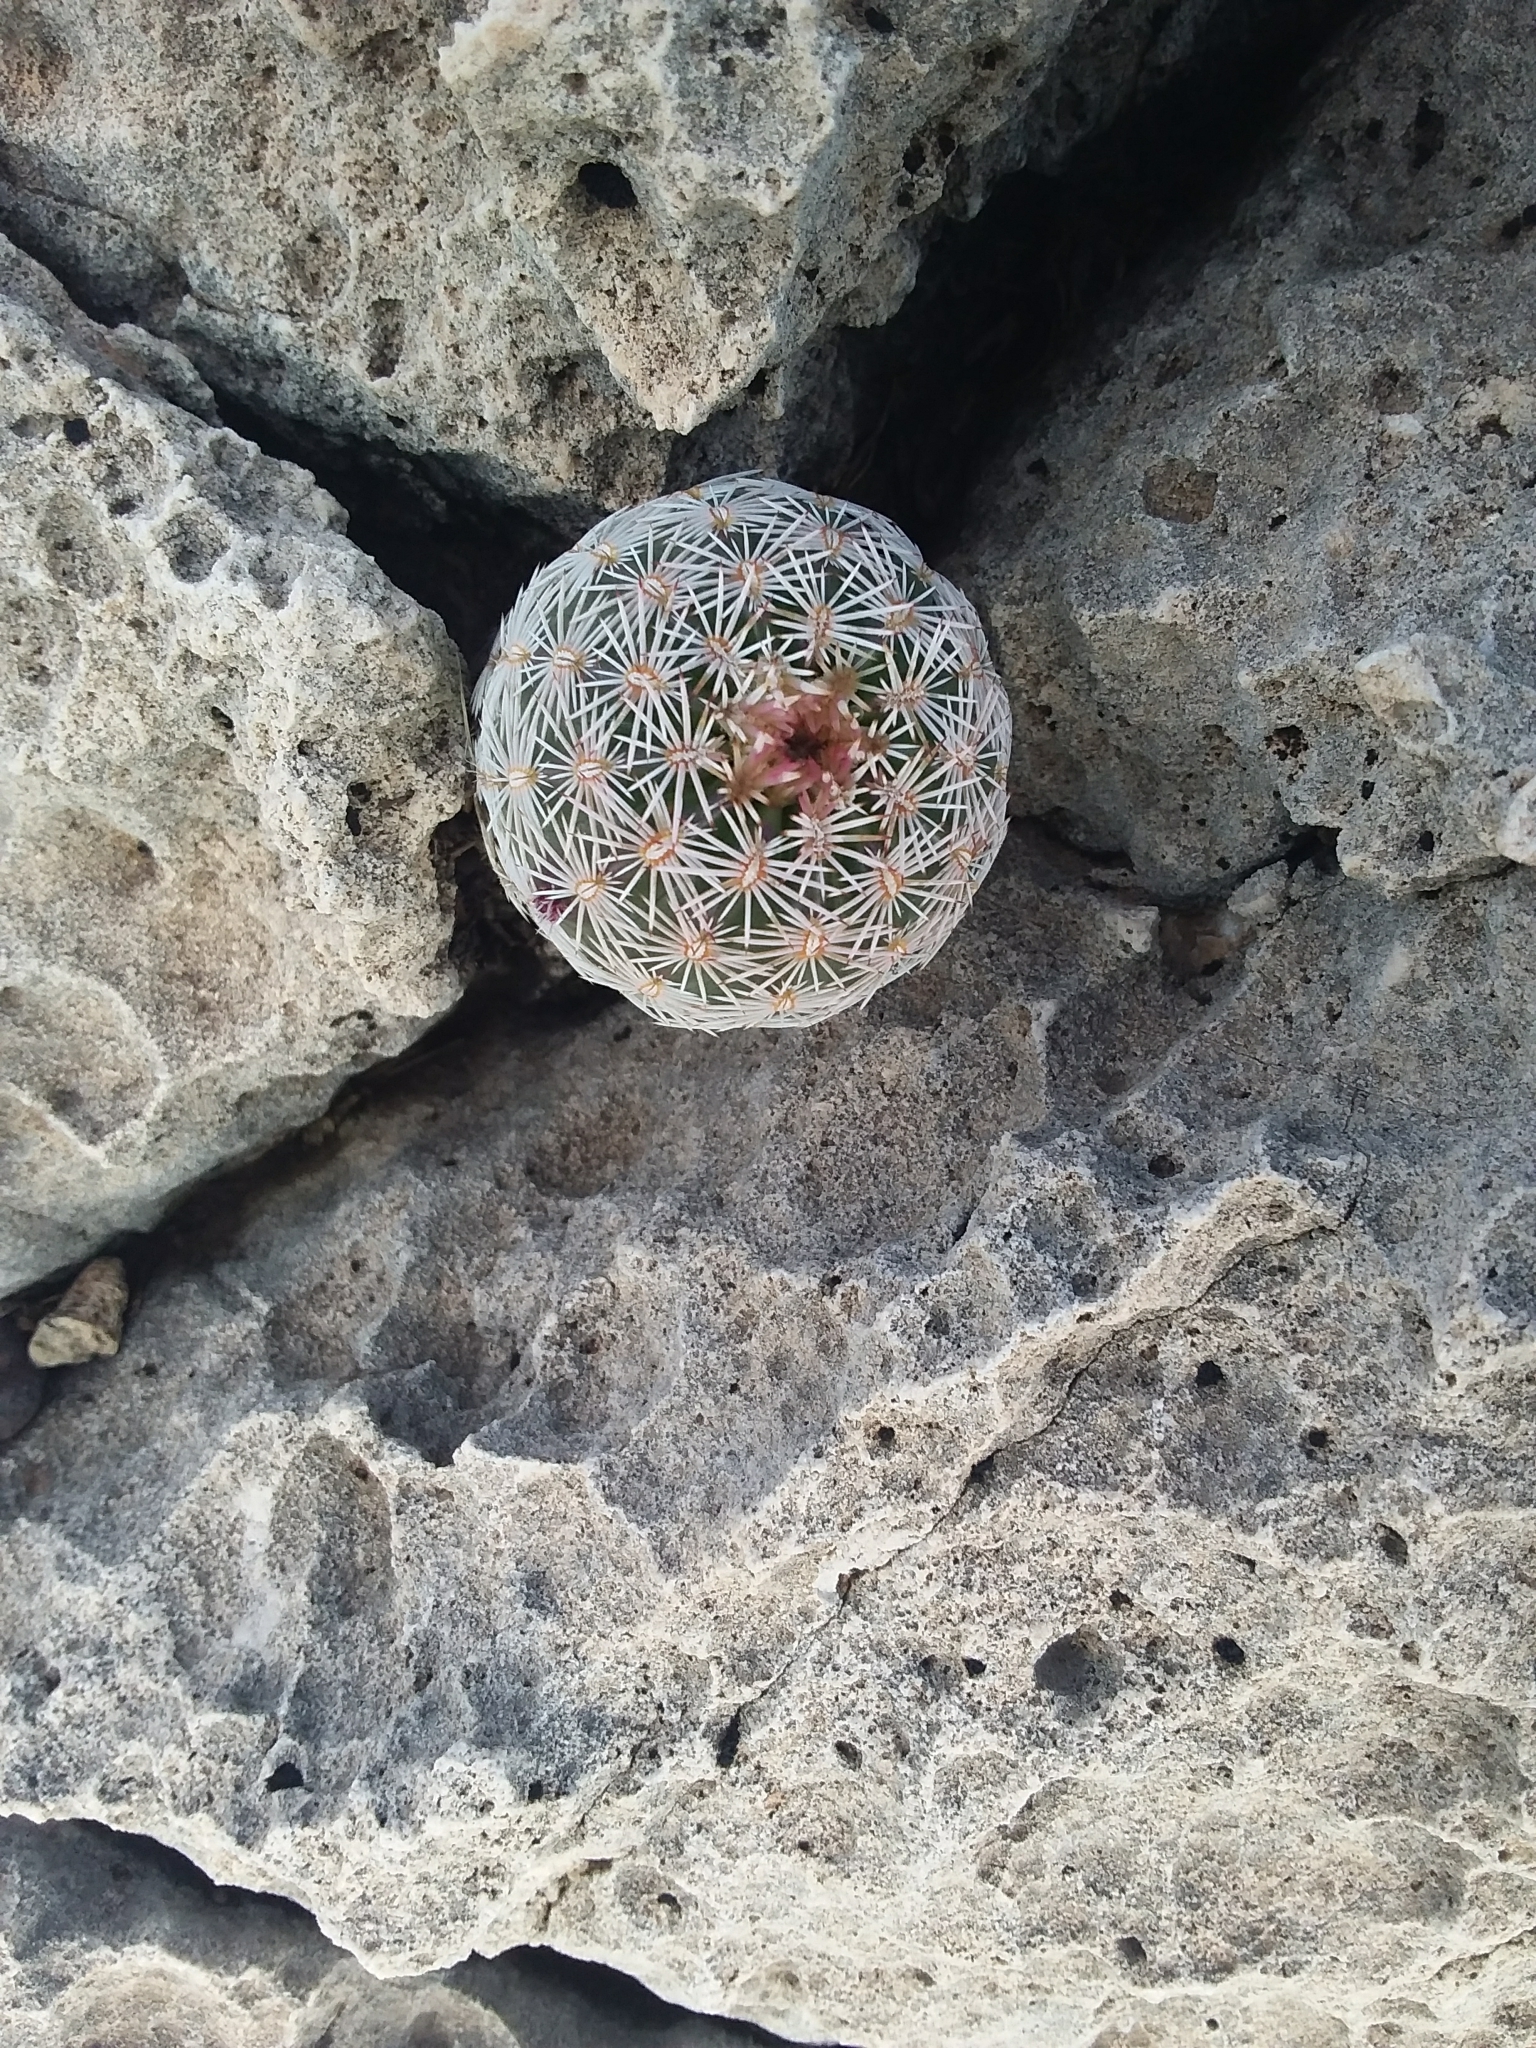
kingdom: Plantae
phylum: Tracheophyta
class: Magnoliopsida
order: Caryophyllales
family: Cactaceae
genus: Echinocereus
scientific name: Echinocereus viridiflorus
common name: Nylon hedgehog cactus
